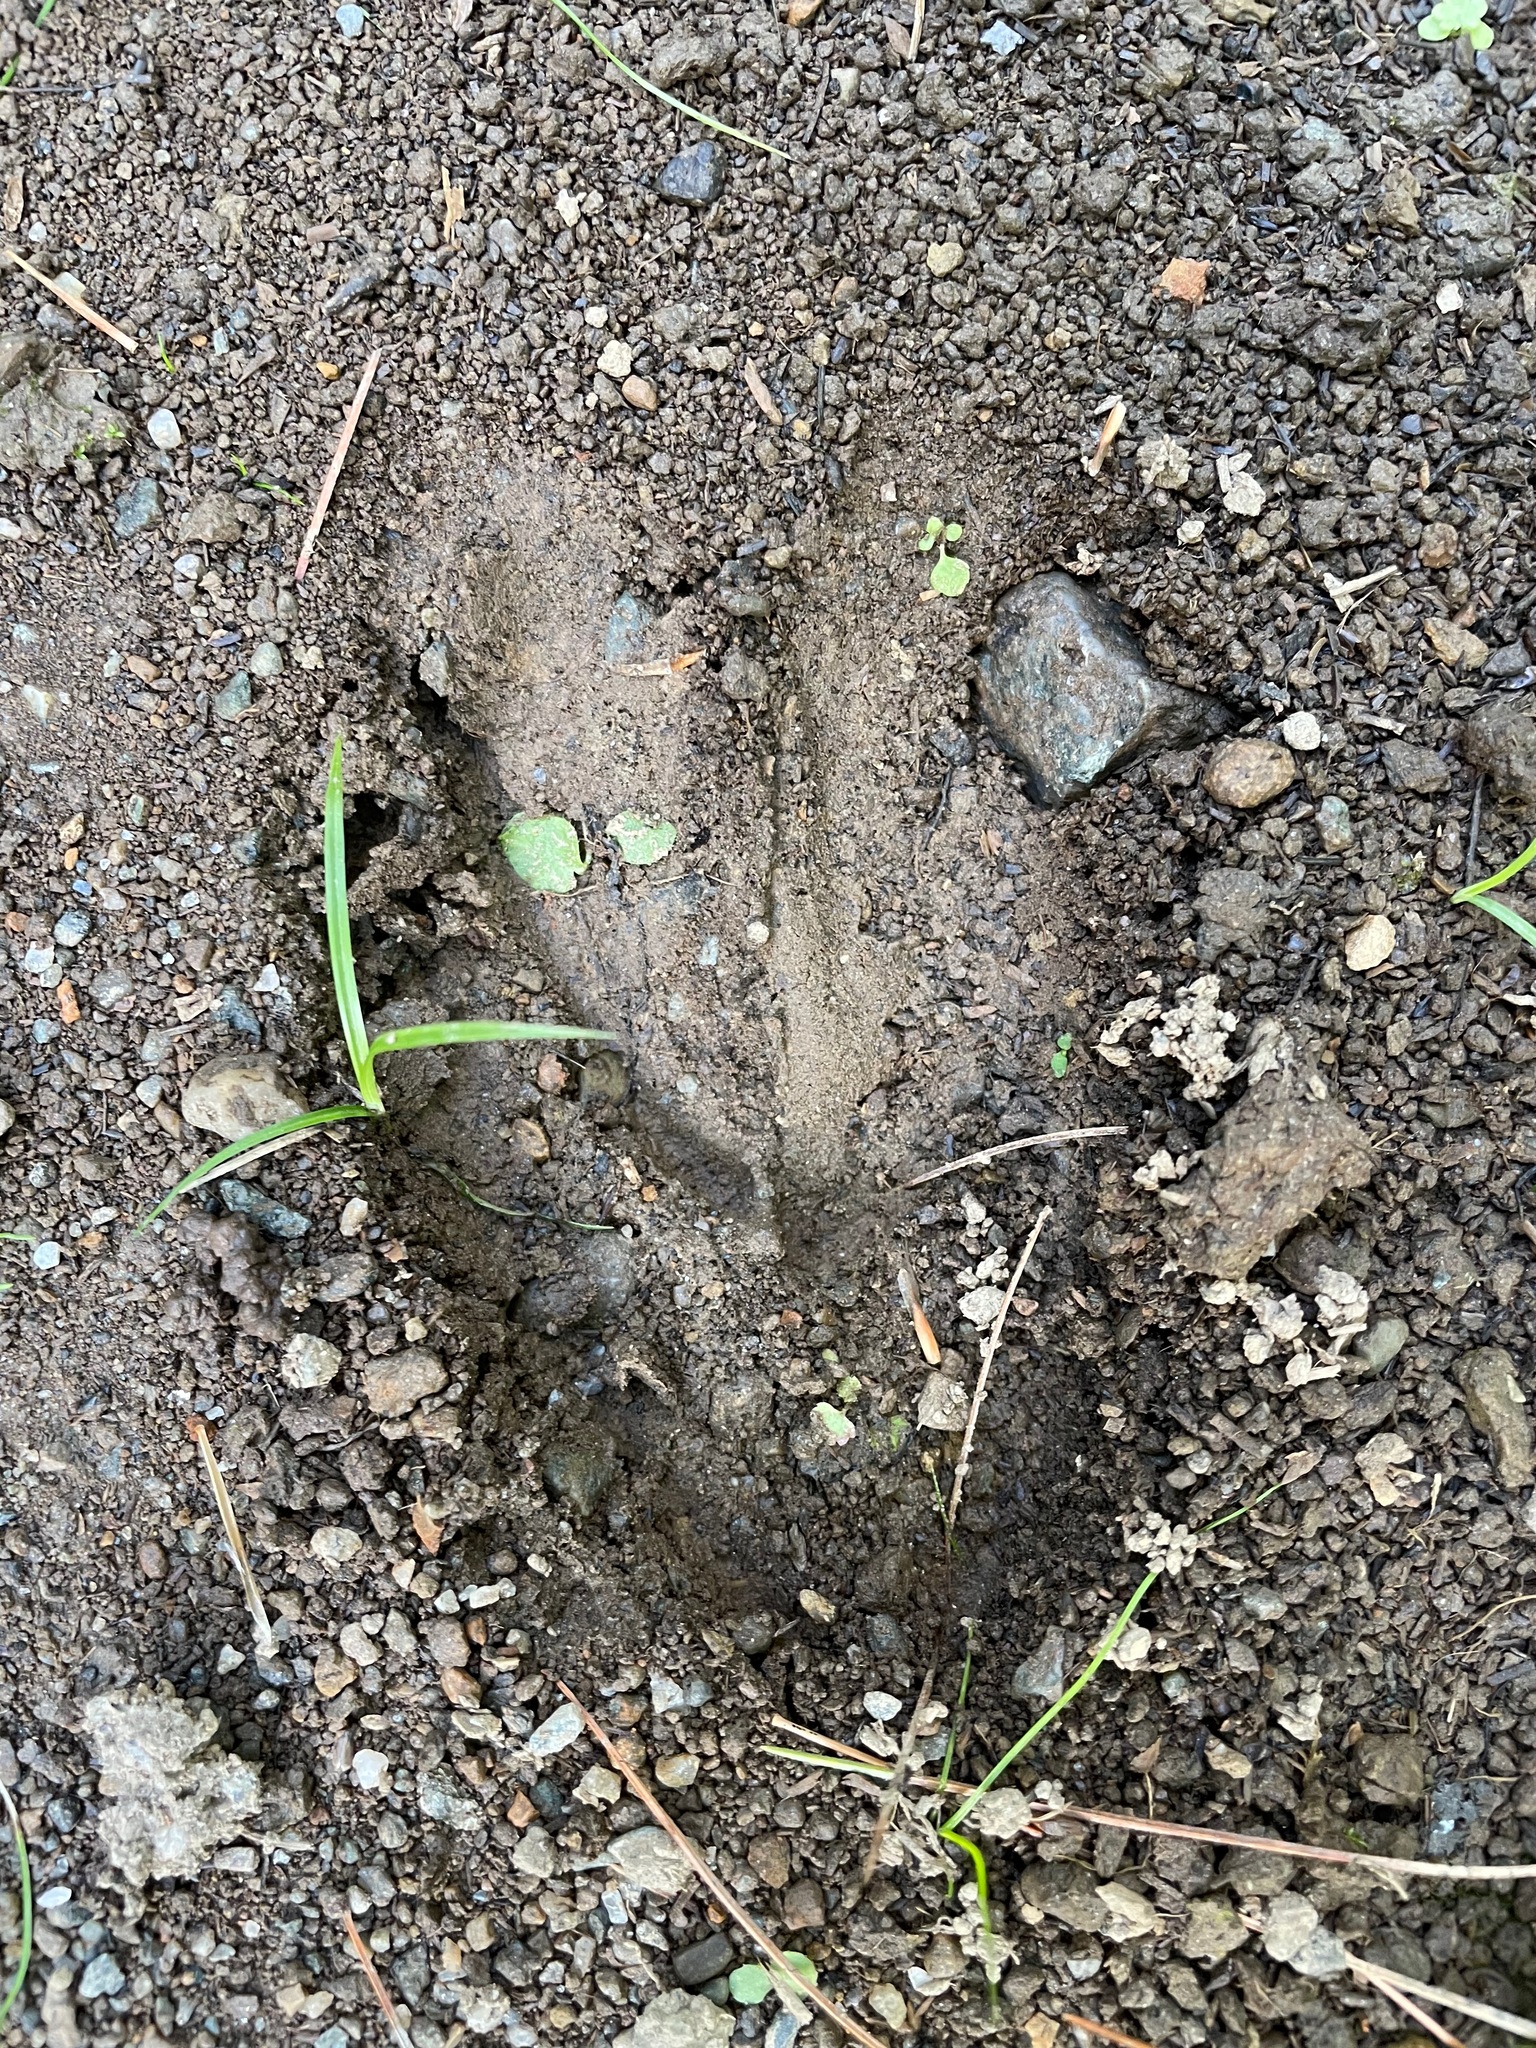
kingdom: Animalia
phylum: Chordata
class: Mammalia
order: Artiodactyla
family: Cervidae
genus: Odocoileus
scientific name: Odocoileus virginianus
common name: White-tailed deer
